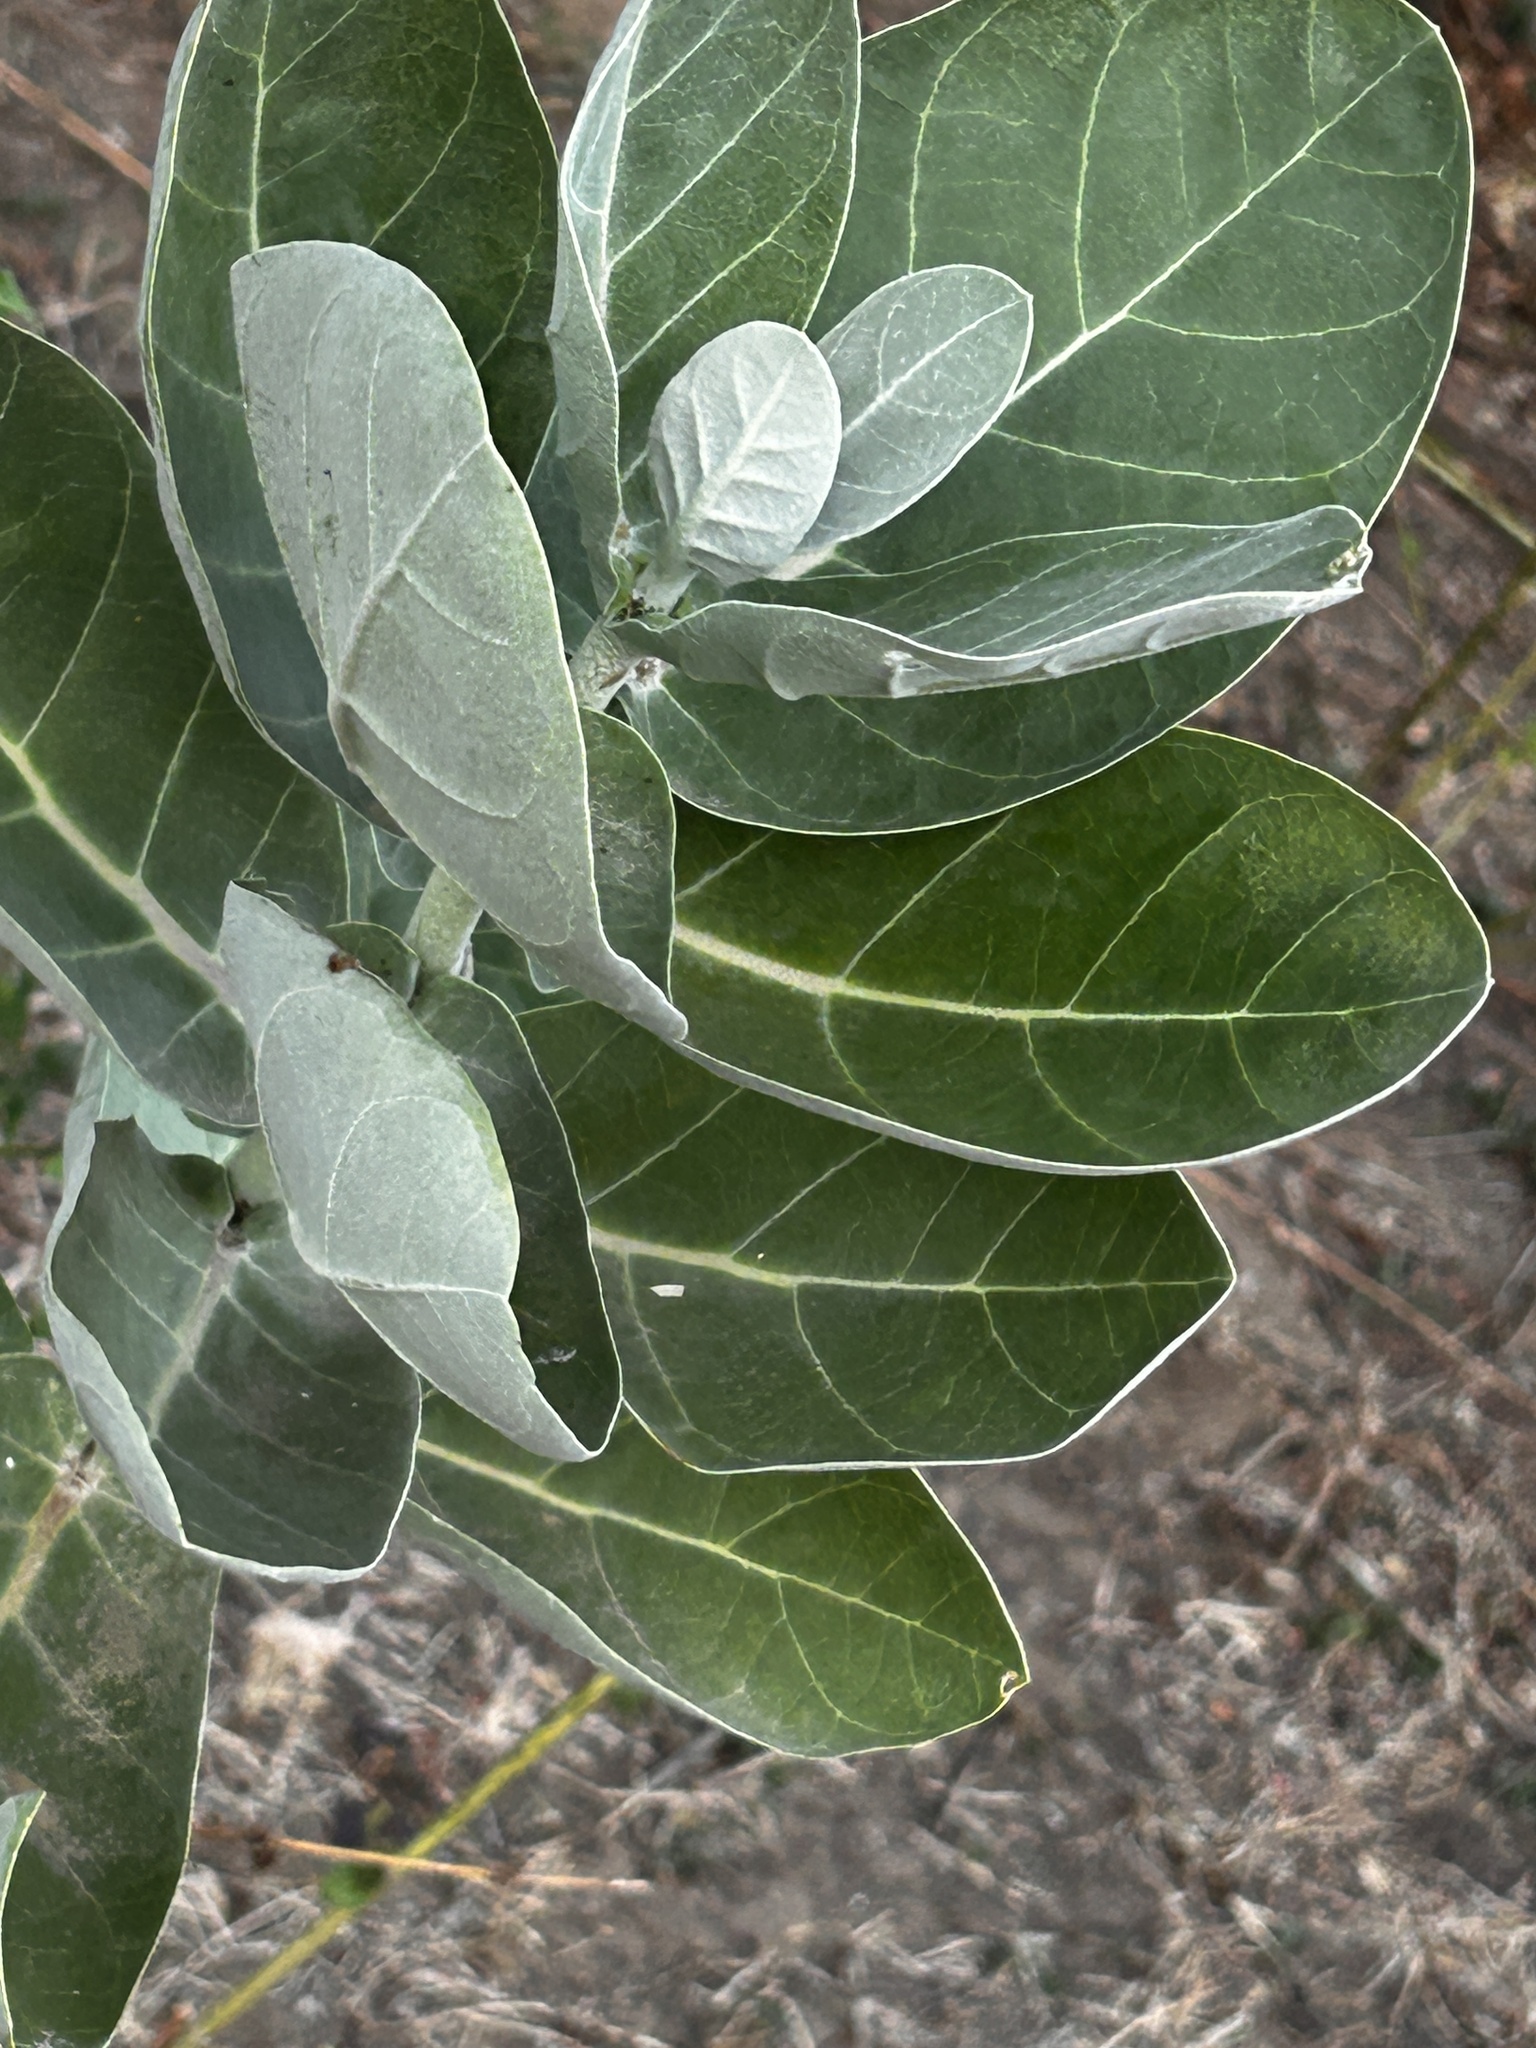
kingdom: Plantae
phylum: Tracheophyta
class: Magnoliopsida
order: Gentianales
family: Apocynaceae
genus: Calotropis
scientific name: Calotropis gigantea
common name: Crown flower
